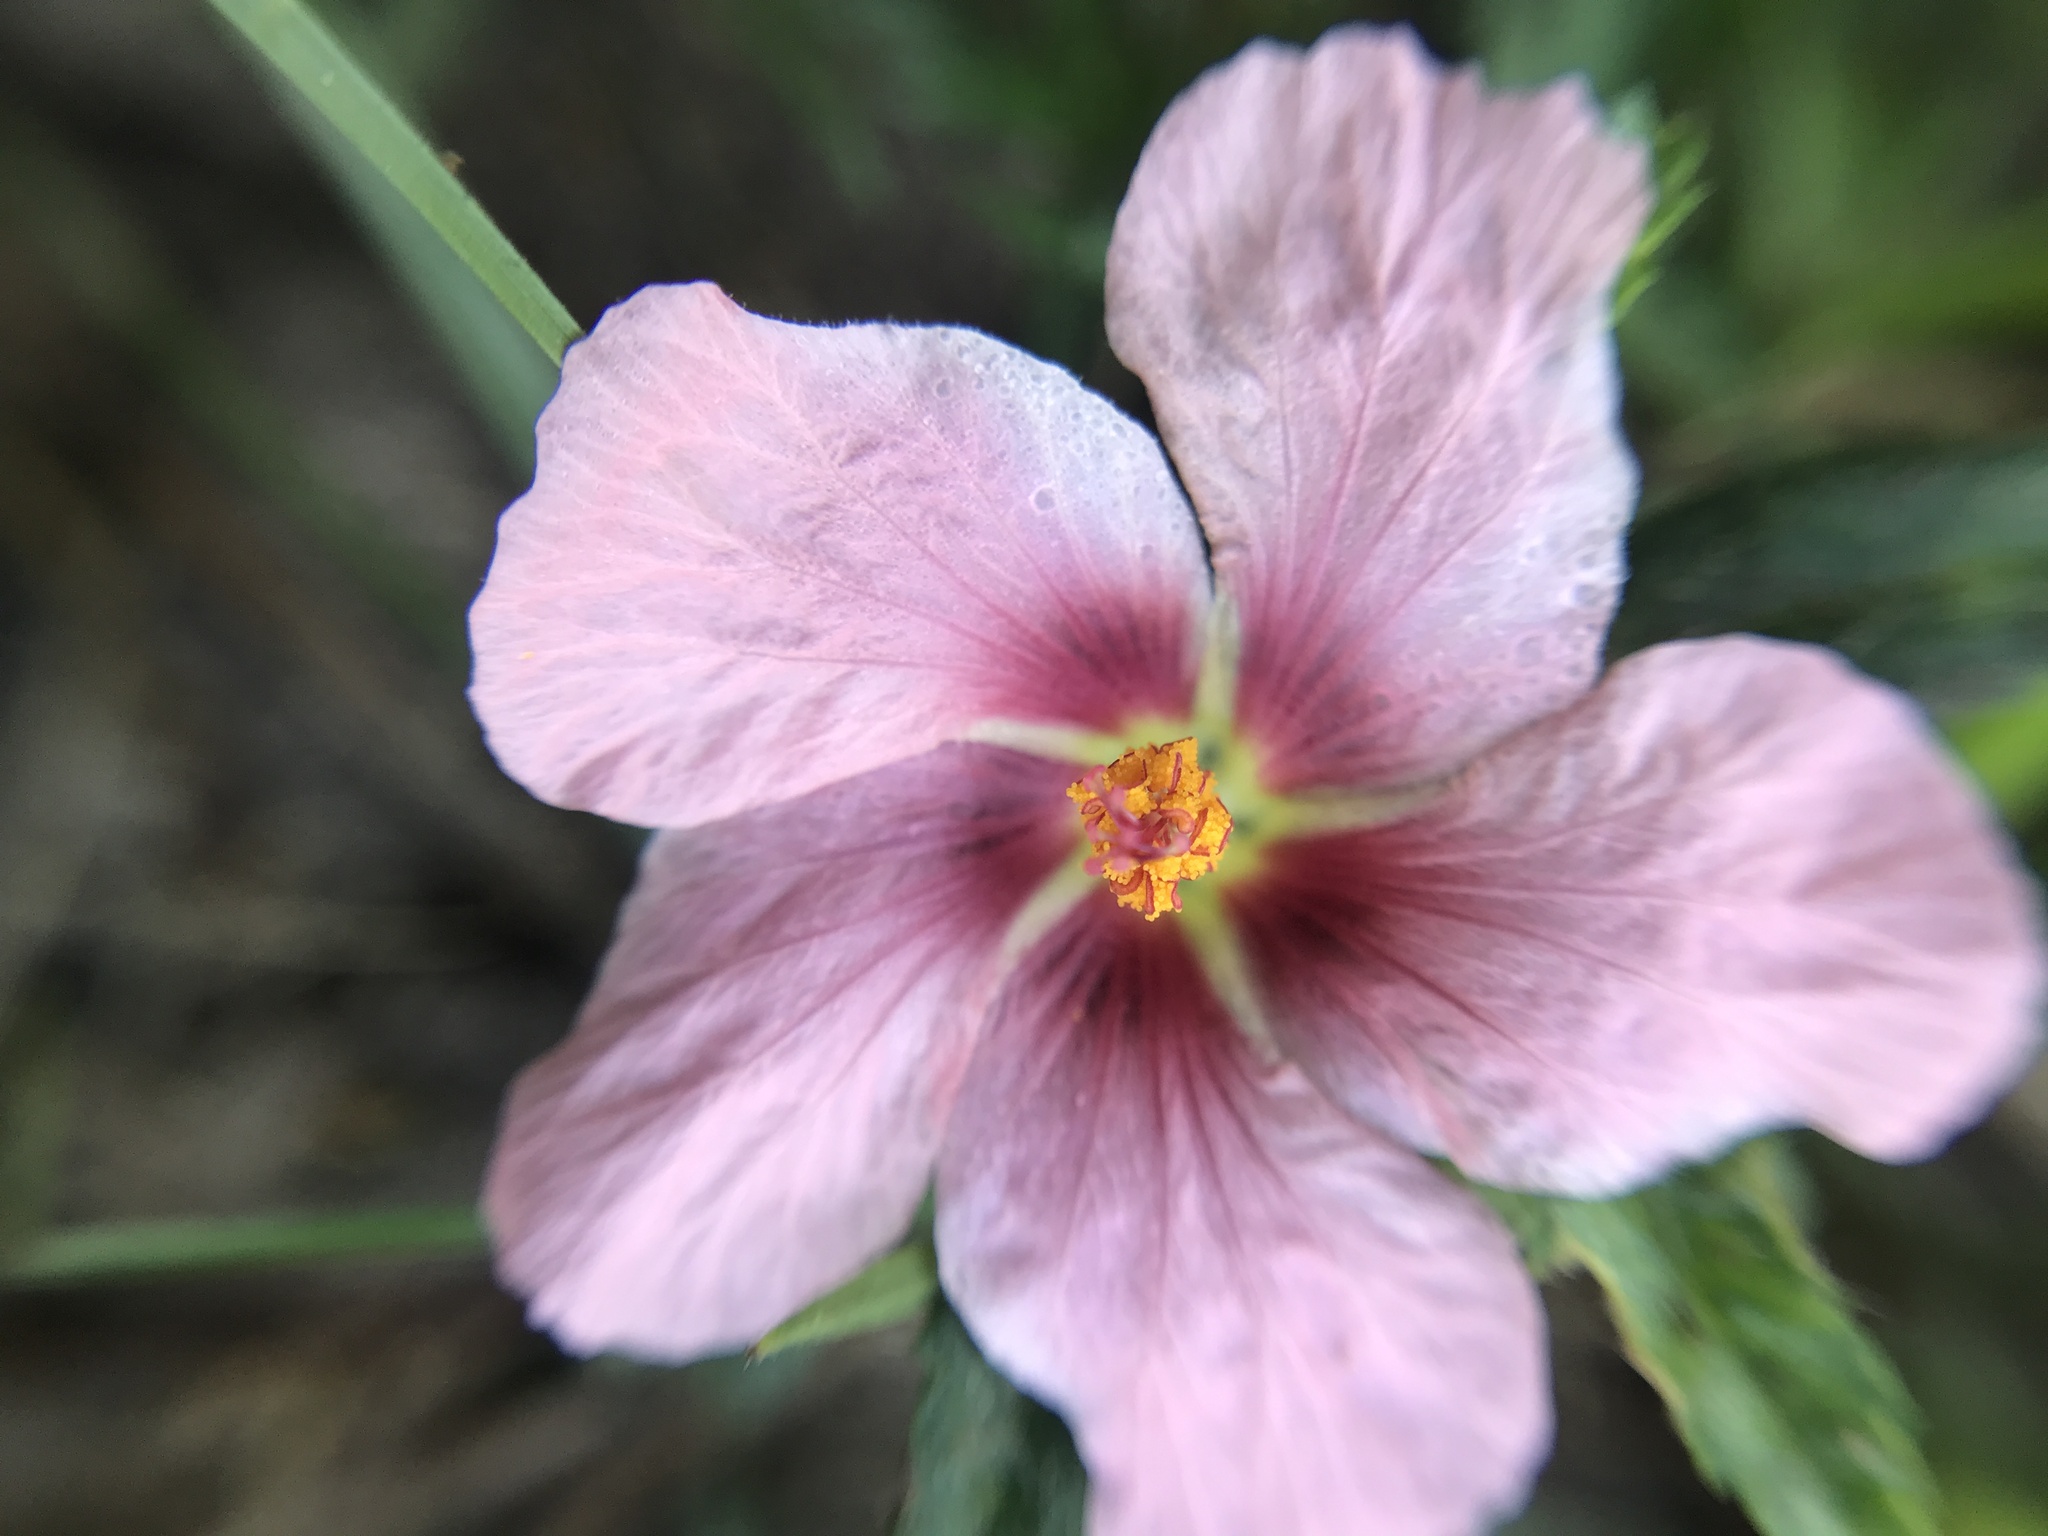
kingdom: Plantae
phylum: Tracheophyta
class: Magnoliopsida
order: Malvales
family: Malvaceae
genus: Sida
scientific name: Sida anomala
